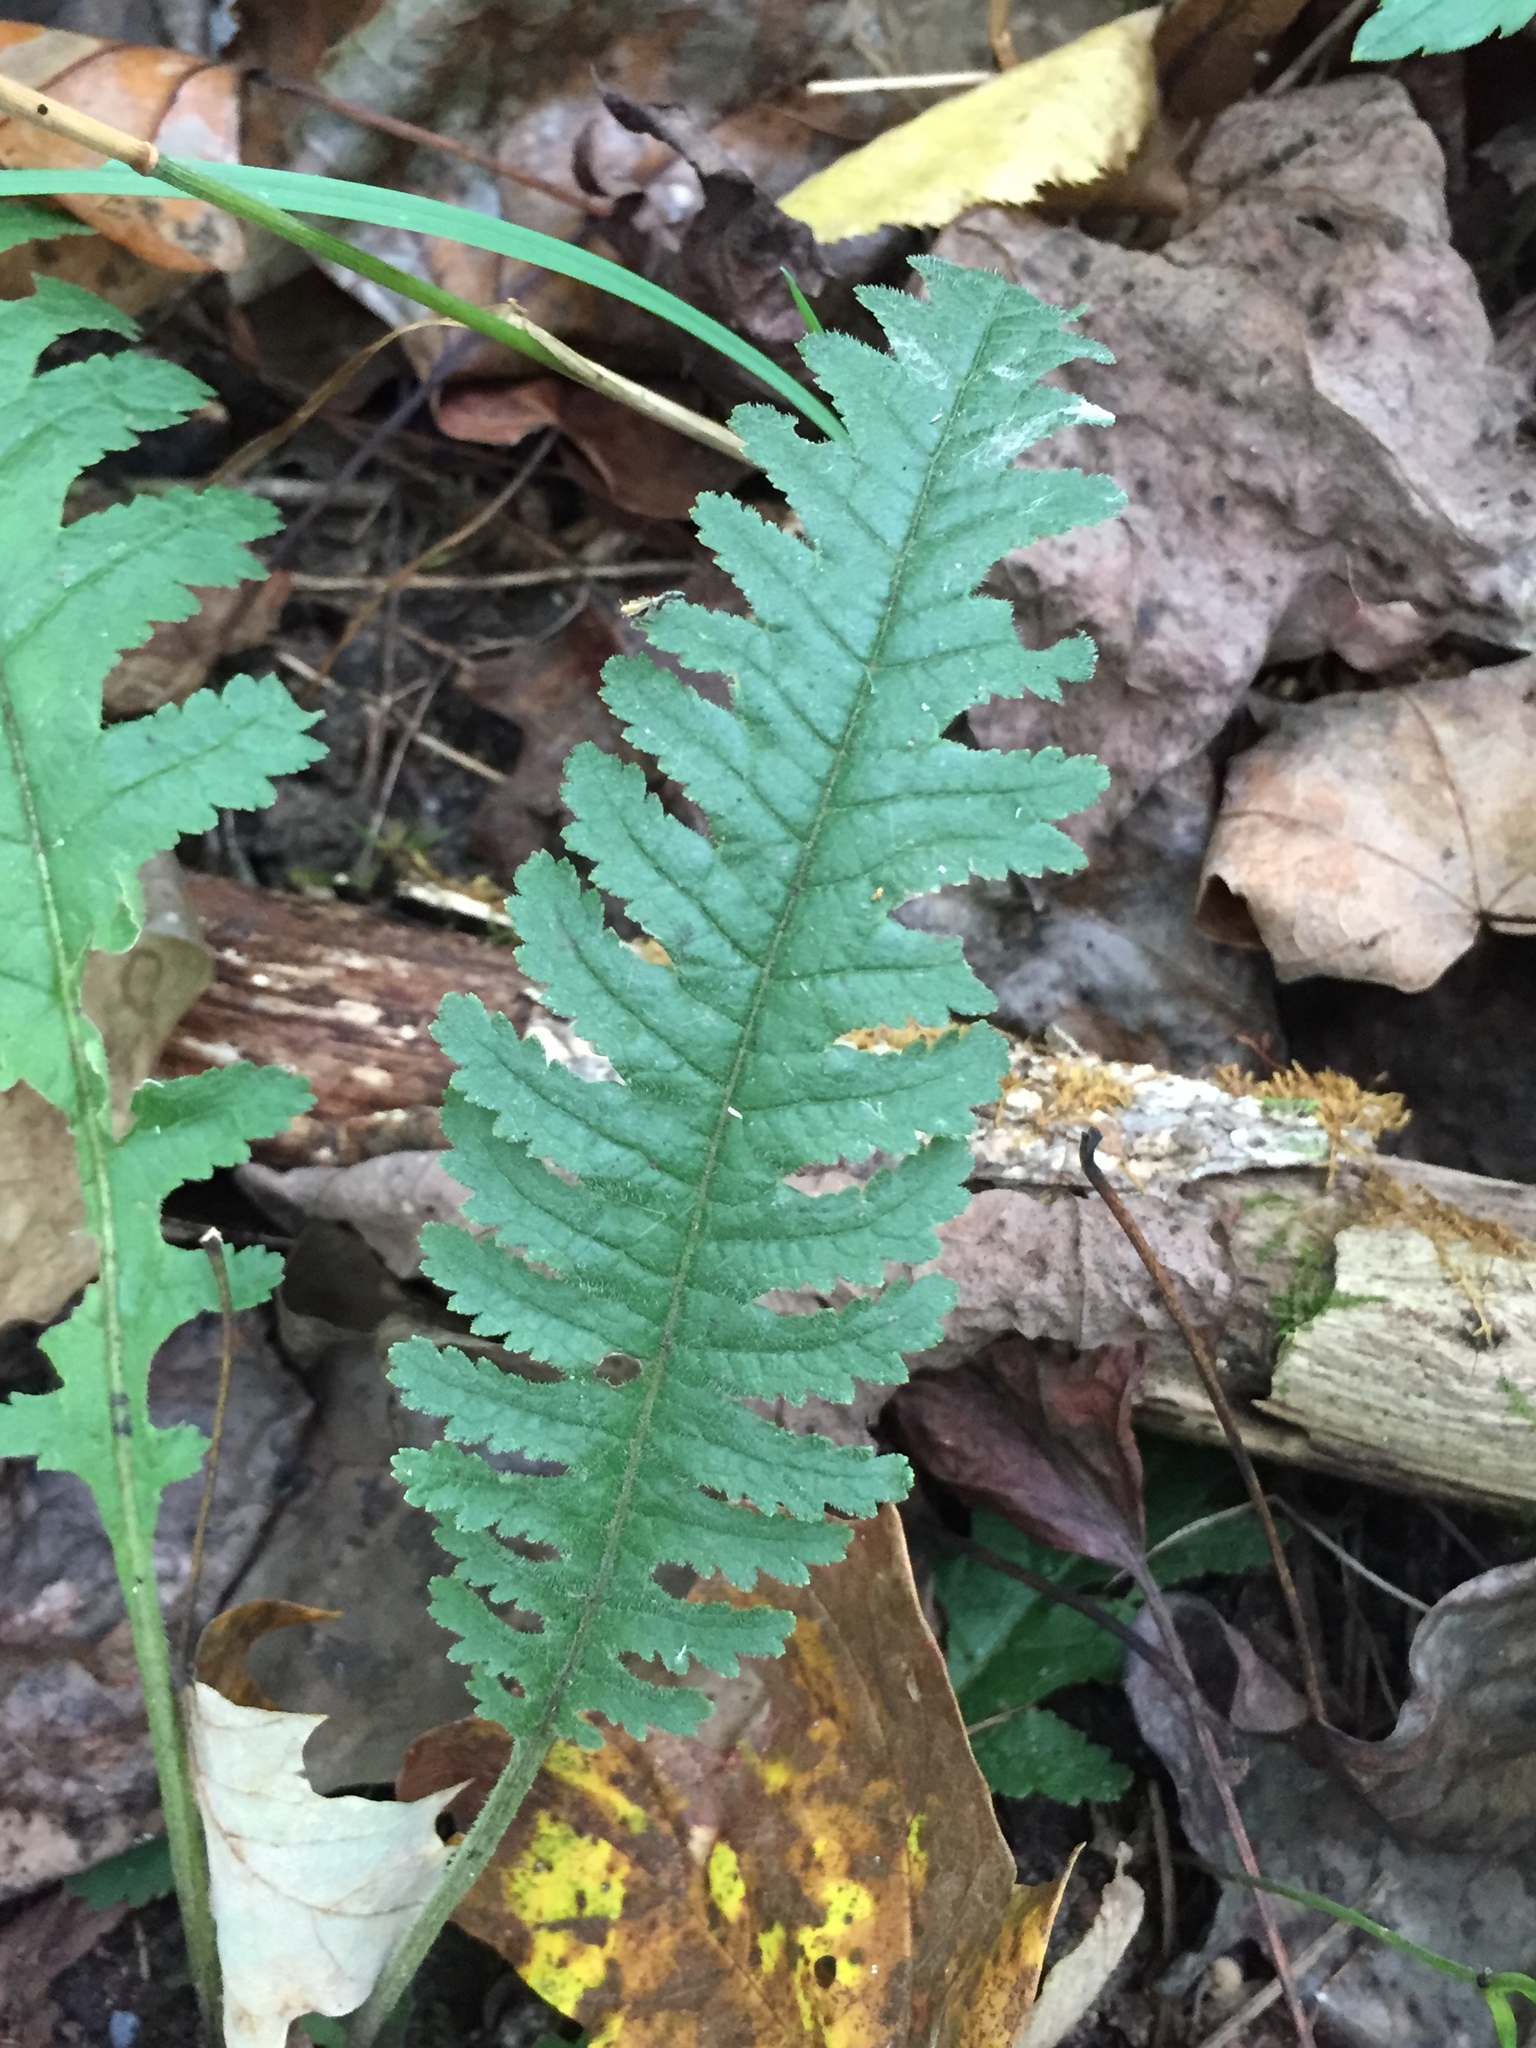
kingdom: Plantae
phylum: Tracheophyta
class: Magnoliopsida
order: Lamiales
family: Orobanchaceae
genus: Pedicularis
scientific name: Pedicularis canadensis
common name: Early lousewort
